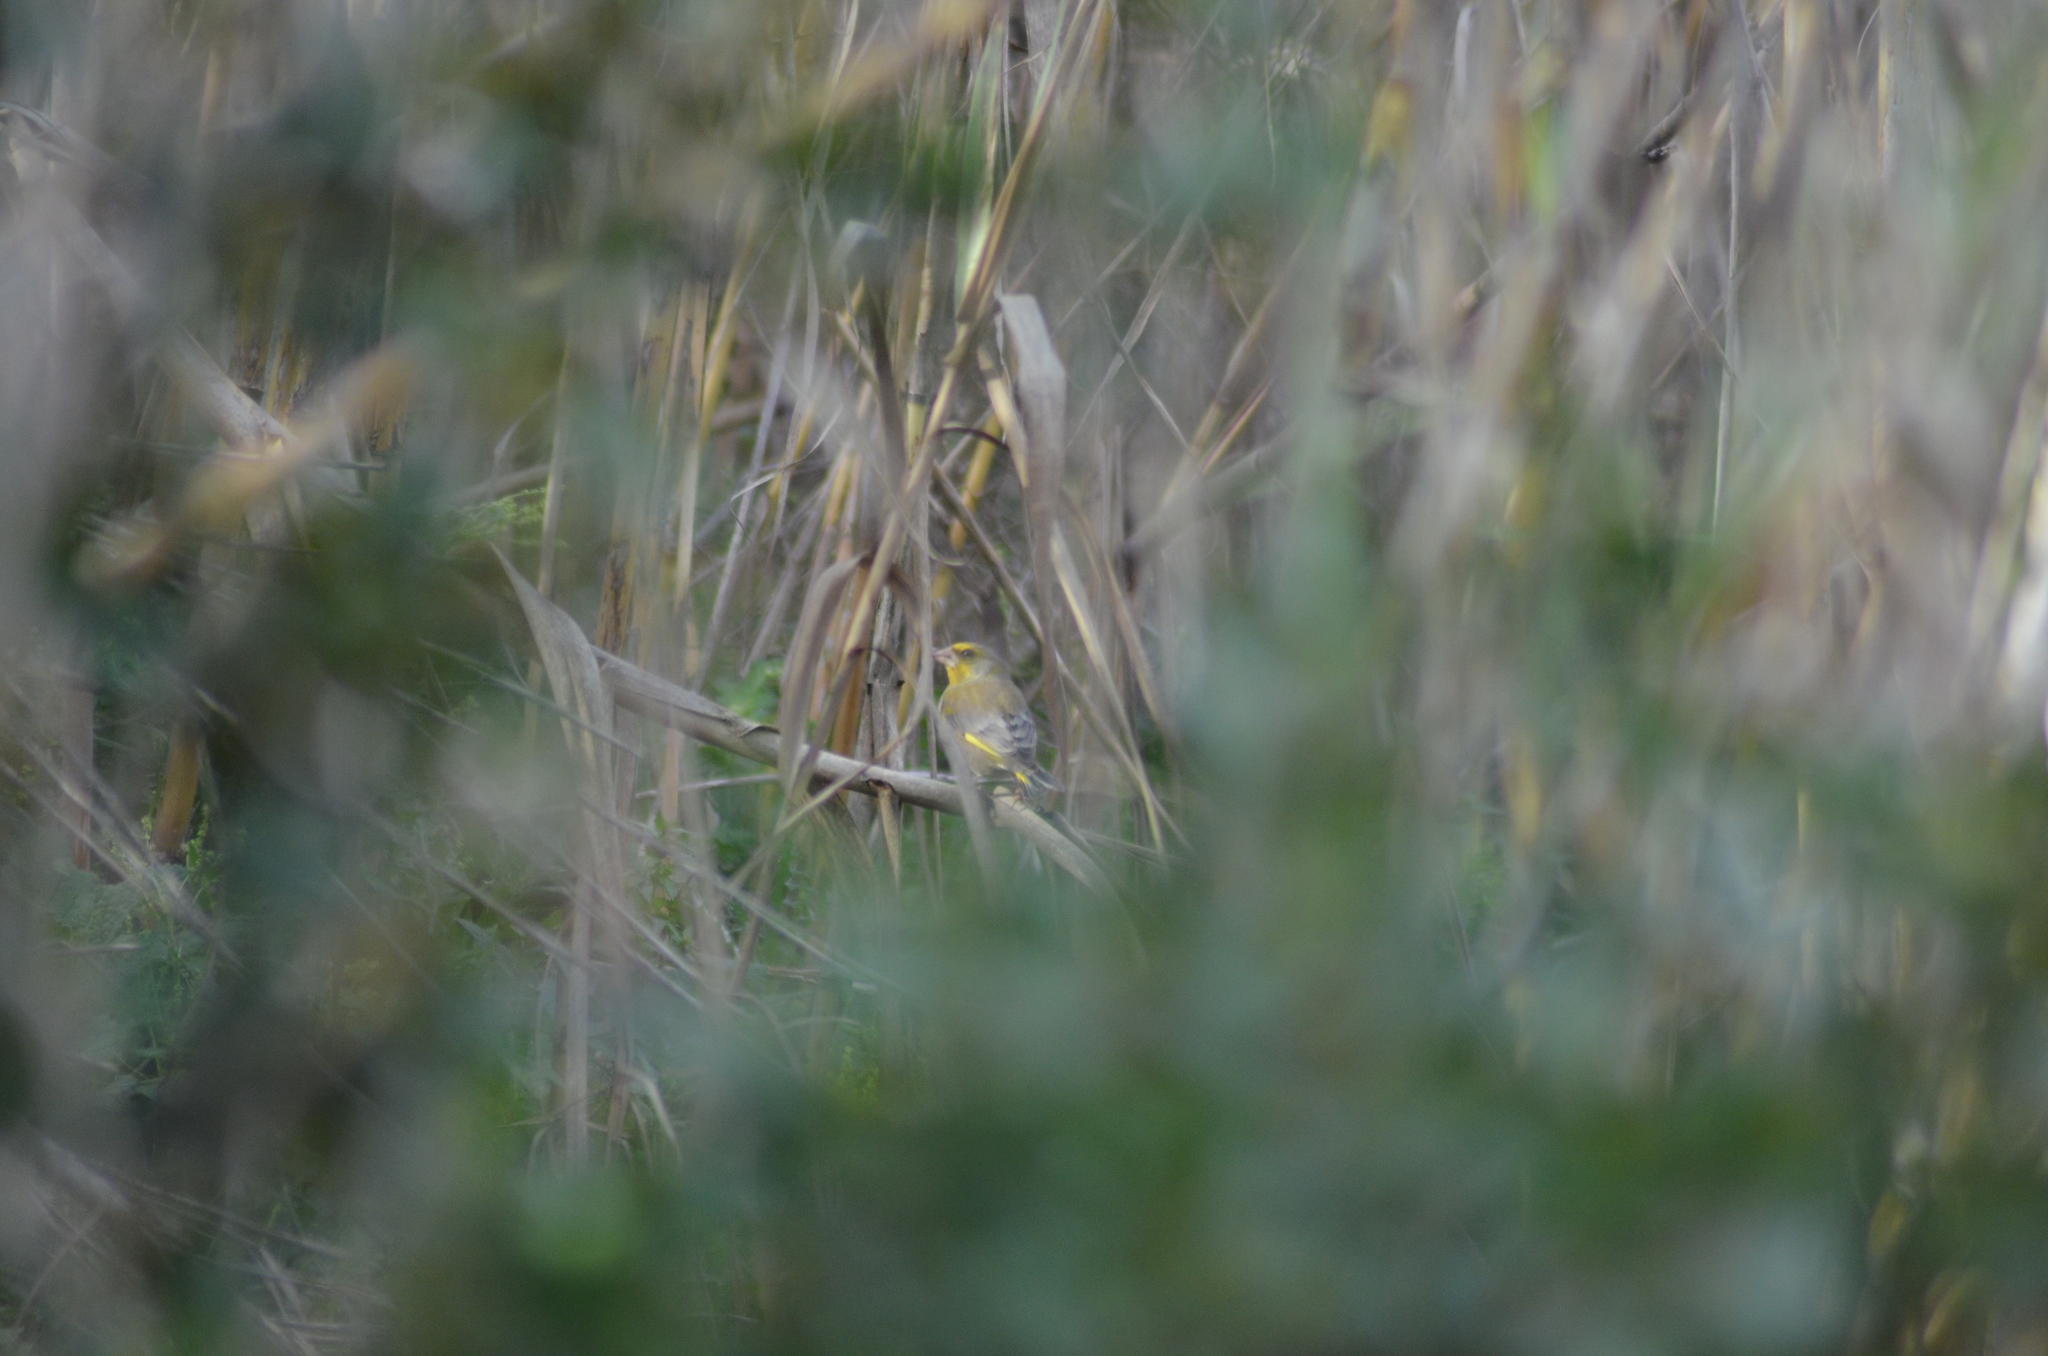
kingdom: Plantae
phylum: Tracheophyta
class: Liliopsida
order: Poales
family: Poaceae
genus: Chloris
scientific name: Chloris chloris
